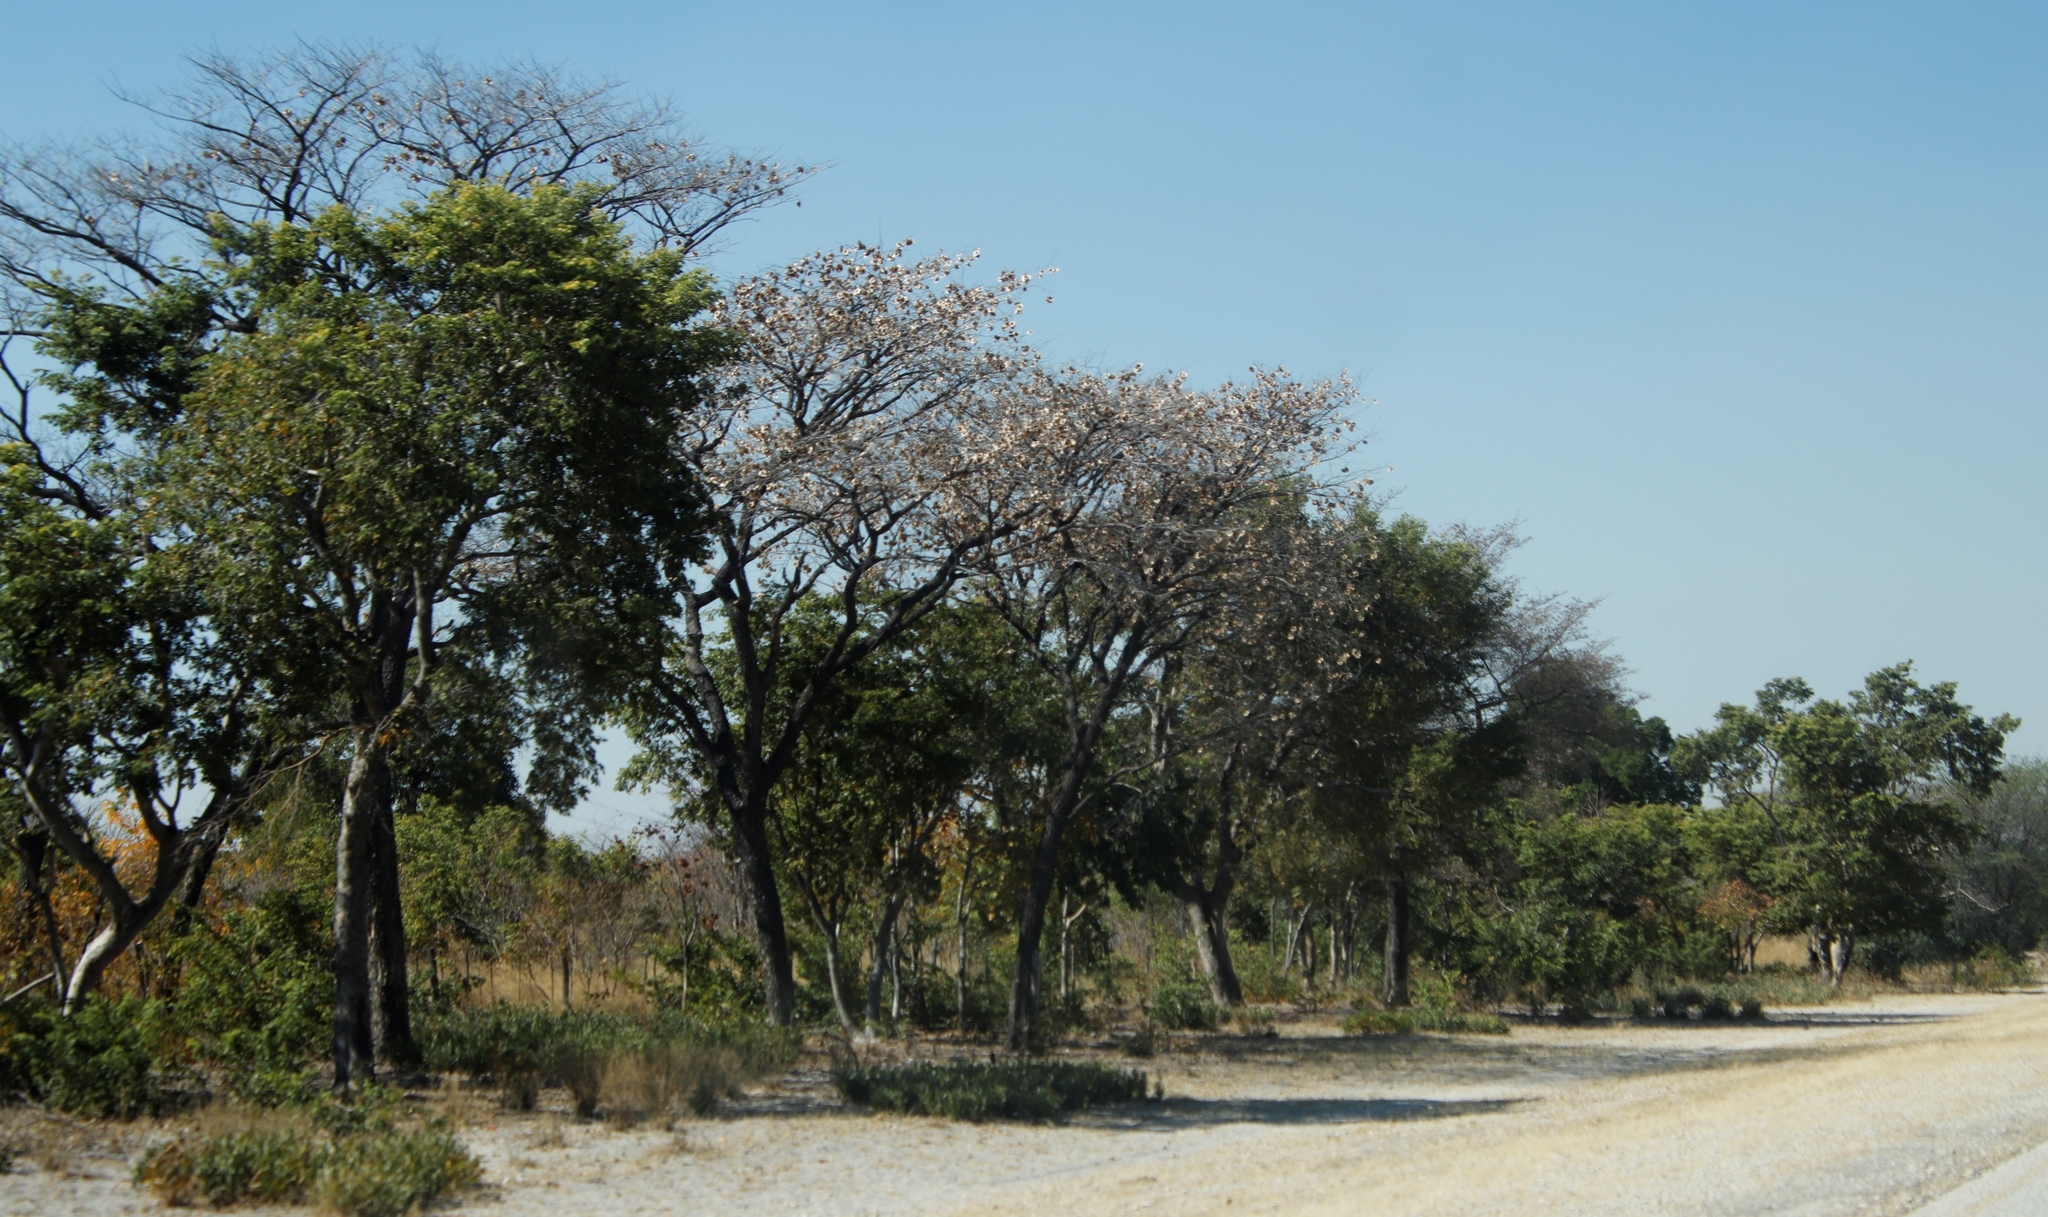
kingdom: Plantae
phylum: Tracheophyta
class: Magnoliopsida
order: Fabales
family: Fabaceae
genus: Pterocarpus
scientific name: Pterocarpus angolensis
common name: Bloodwood tree
